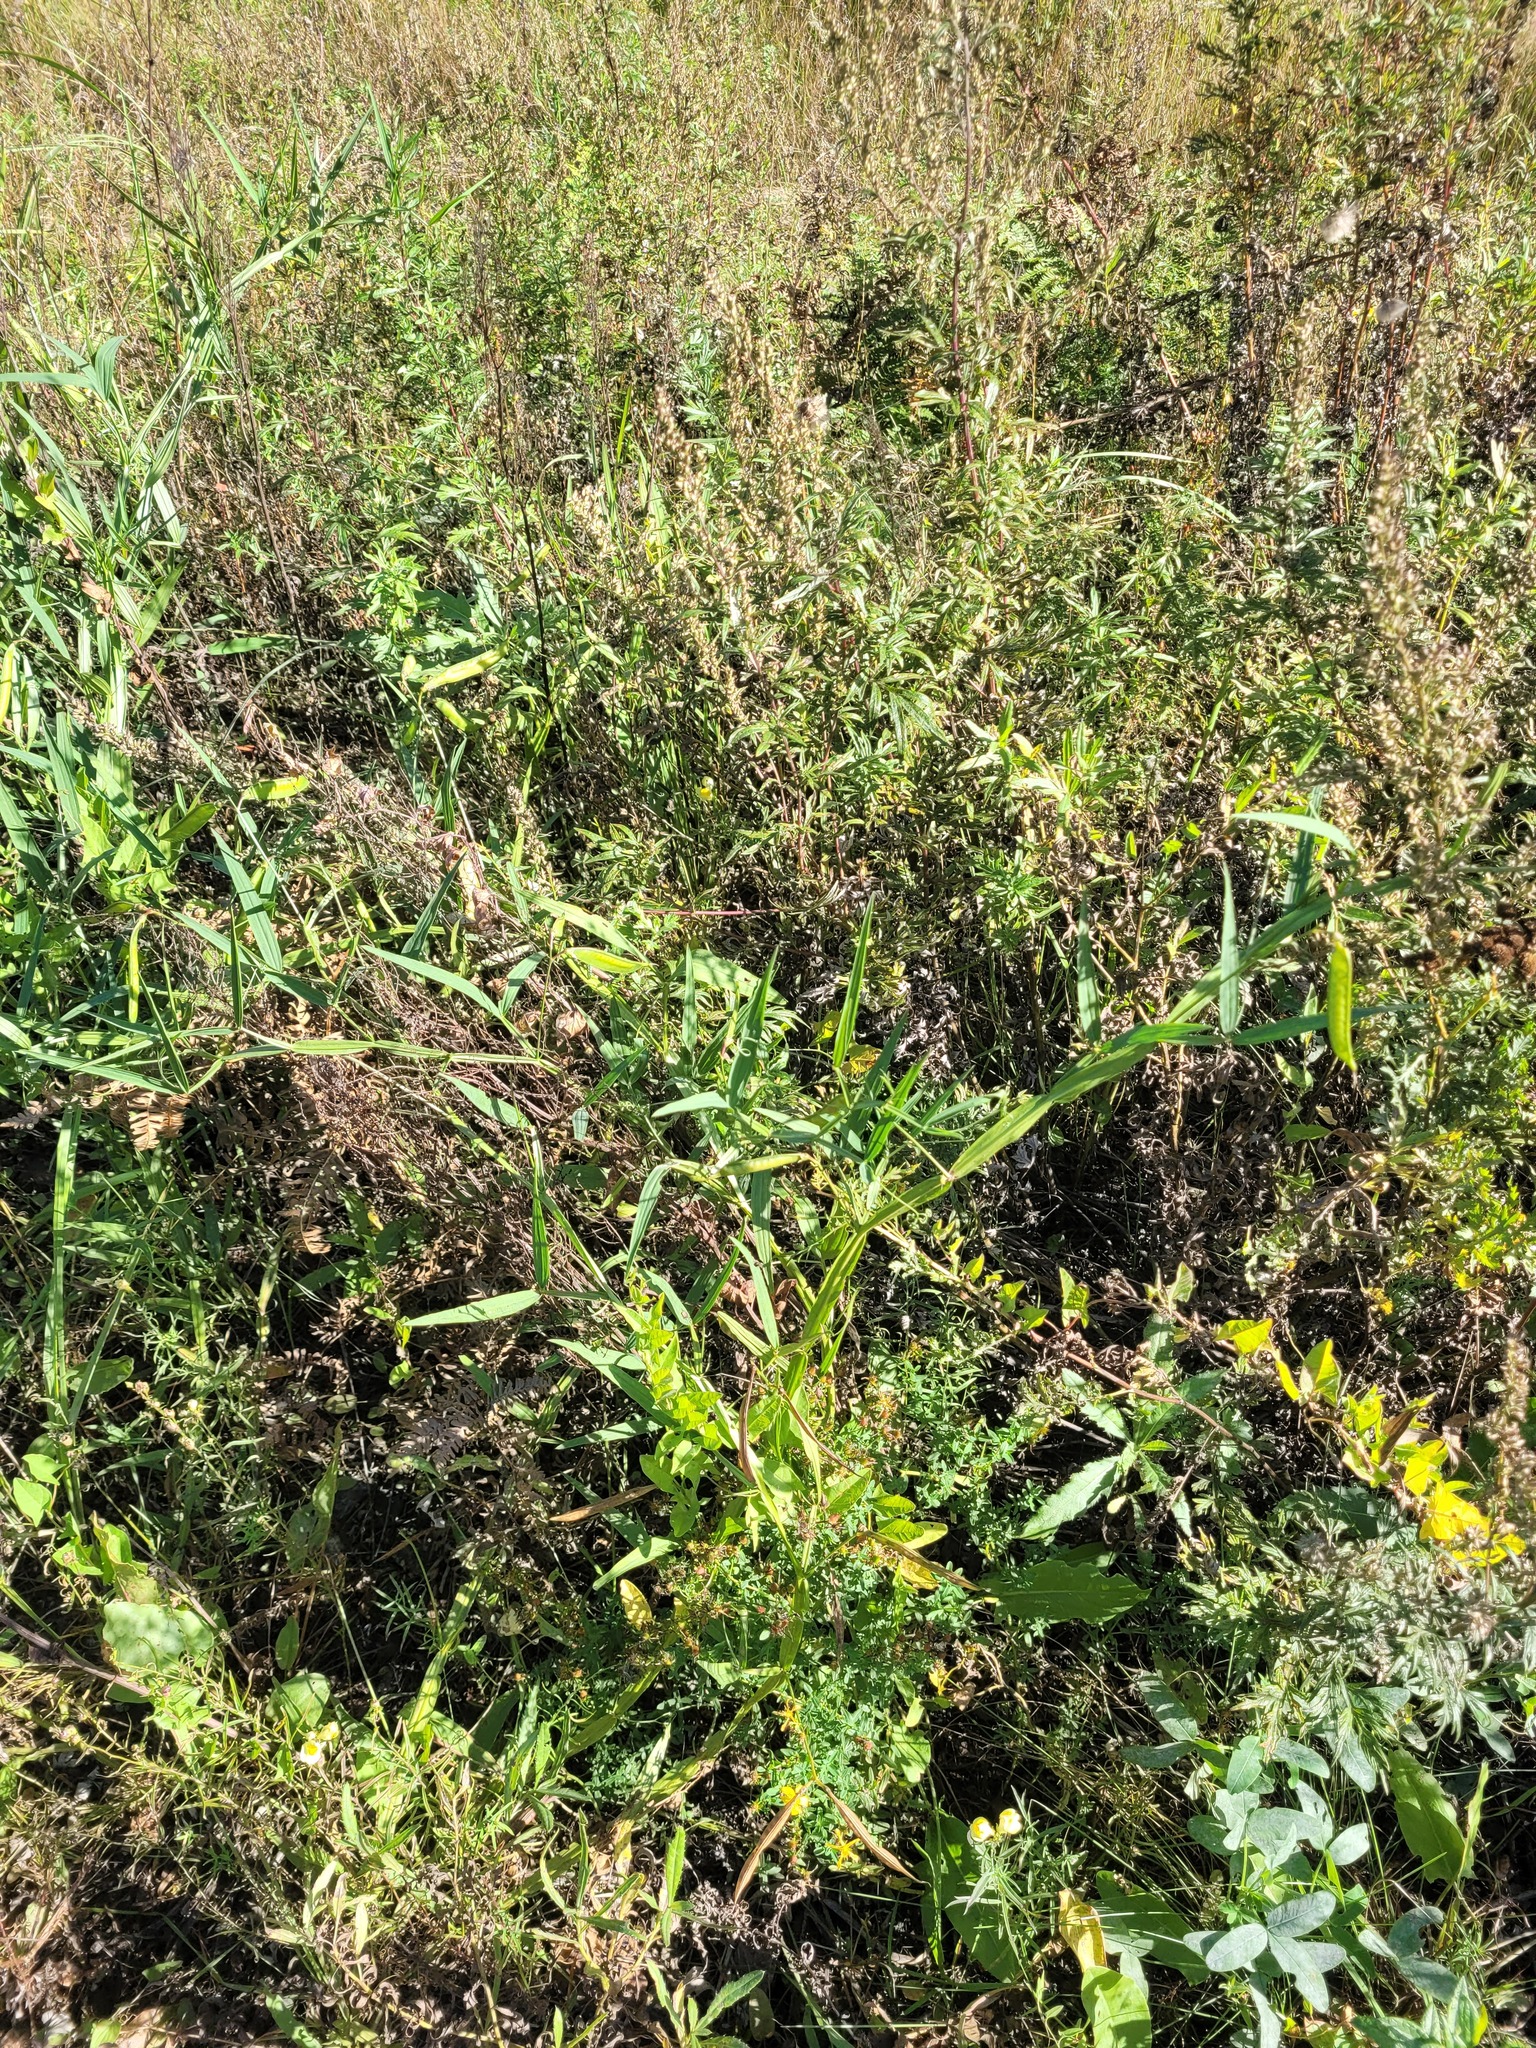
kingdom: Plantae
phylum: Tracheophyta
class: Magnoliopsida
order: Fabales
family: Fabaceae
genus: Lathyrus
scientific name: Lathyrus sylvestris
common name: Flat pea
